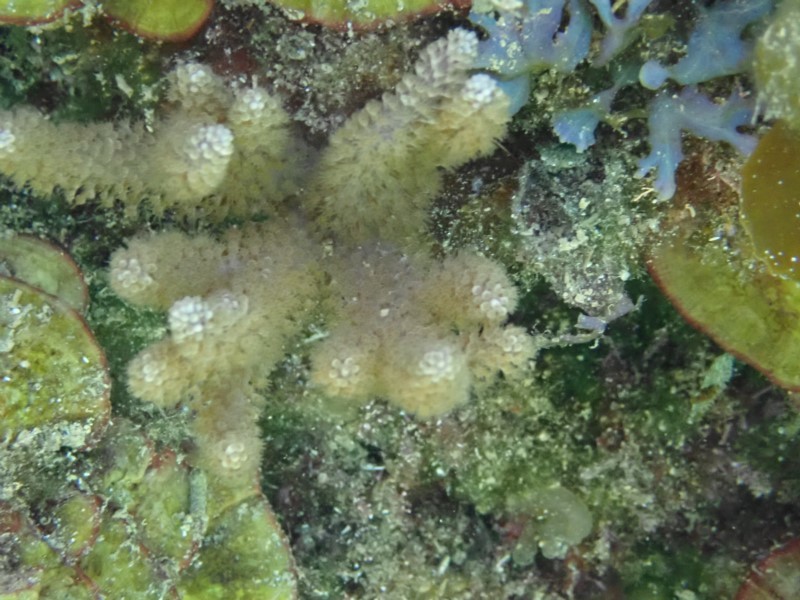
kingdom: Animalia
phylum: Cnidaria
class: Anthozoa
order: Malacalcyonacea
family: Capnellidae
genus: Capnella
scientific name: Capnella gaboensis
